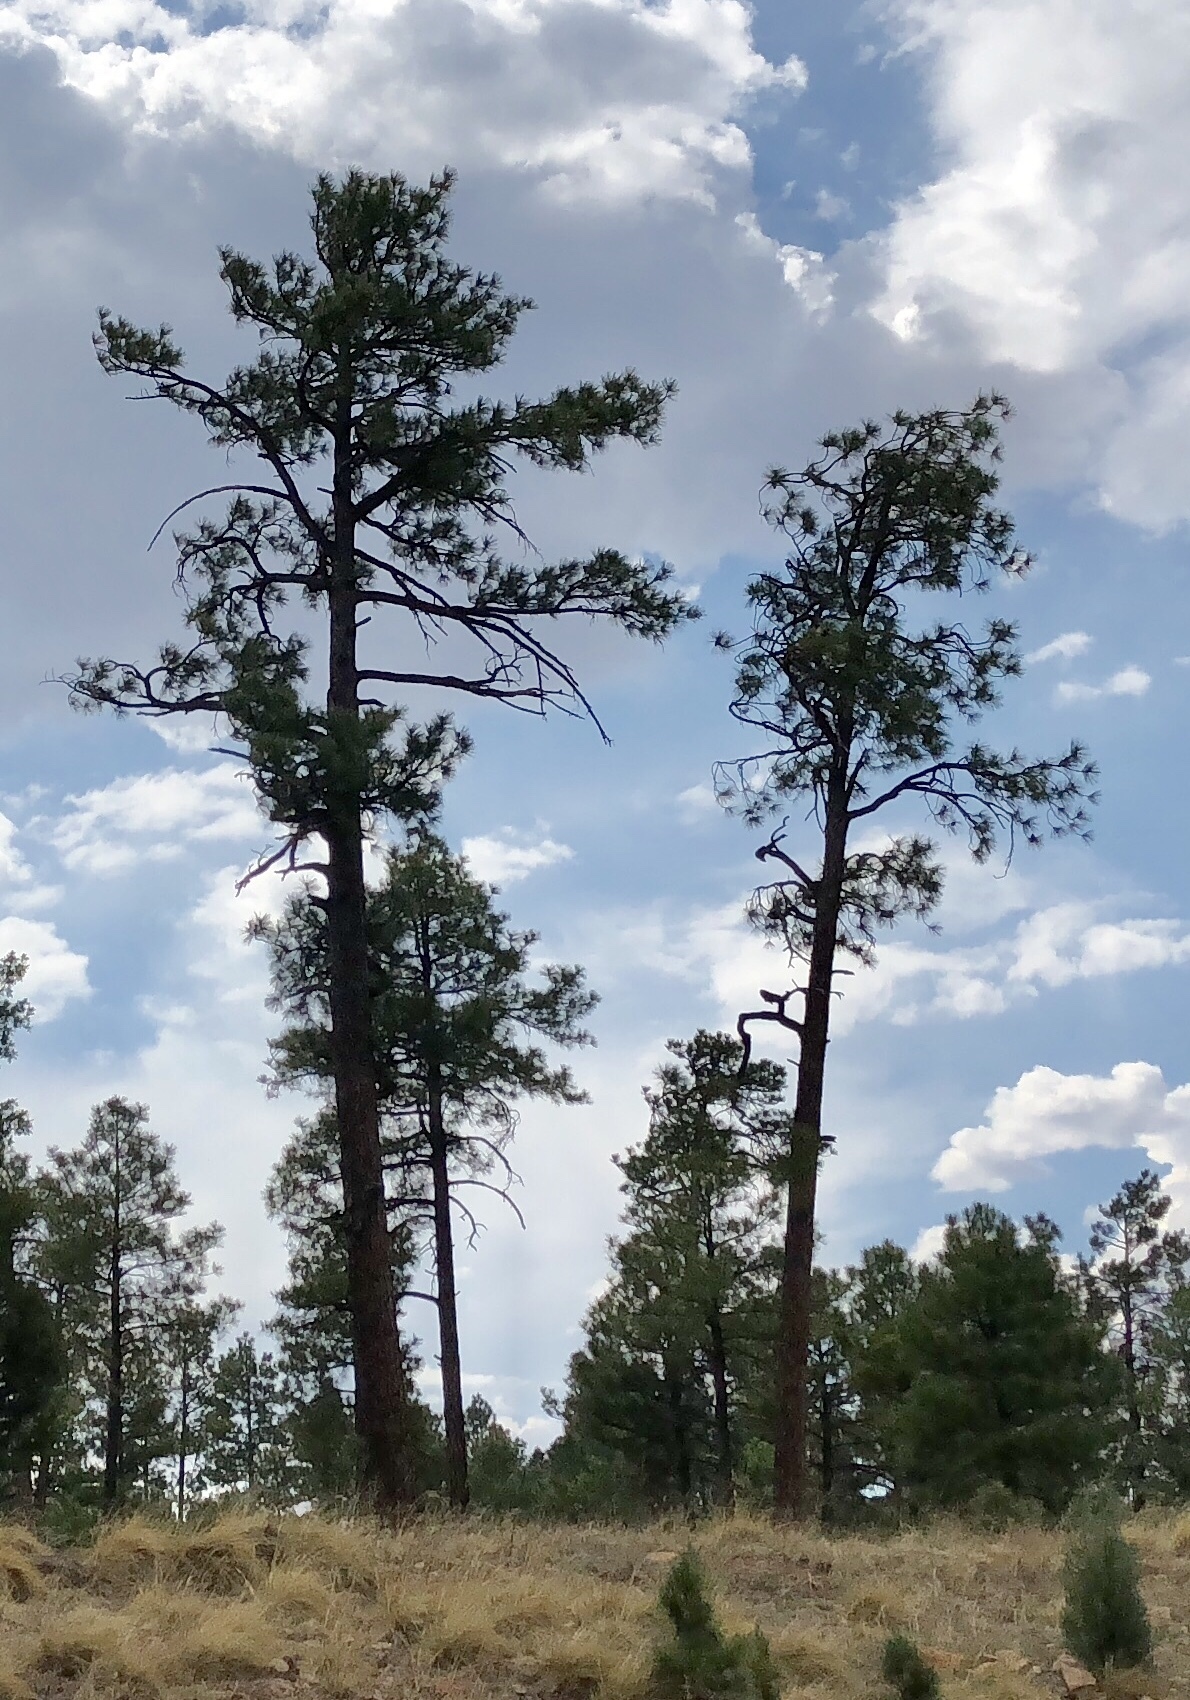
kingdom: Plantae
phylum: Tracheophyta
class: Pinopsida
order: Pinales
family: Pinaceae
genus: Pinus
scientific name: Pinus ponderosa
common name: Western yellow-pine
